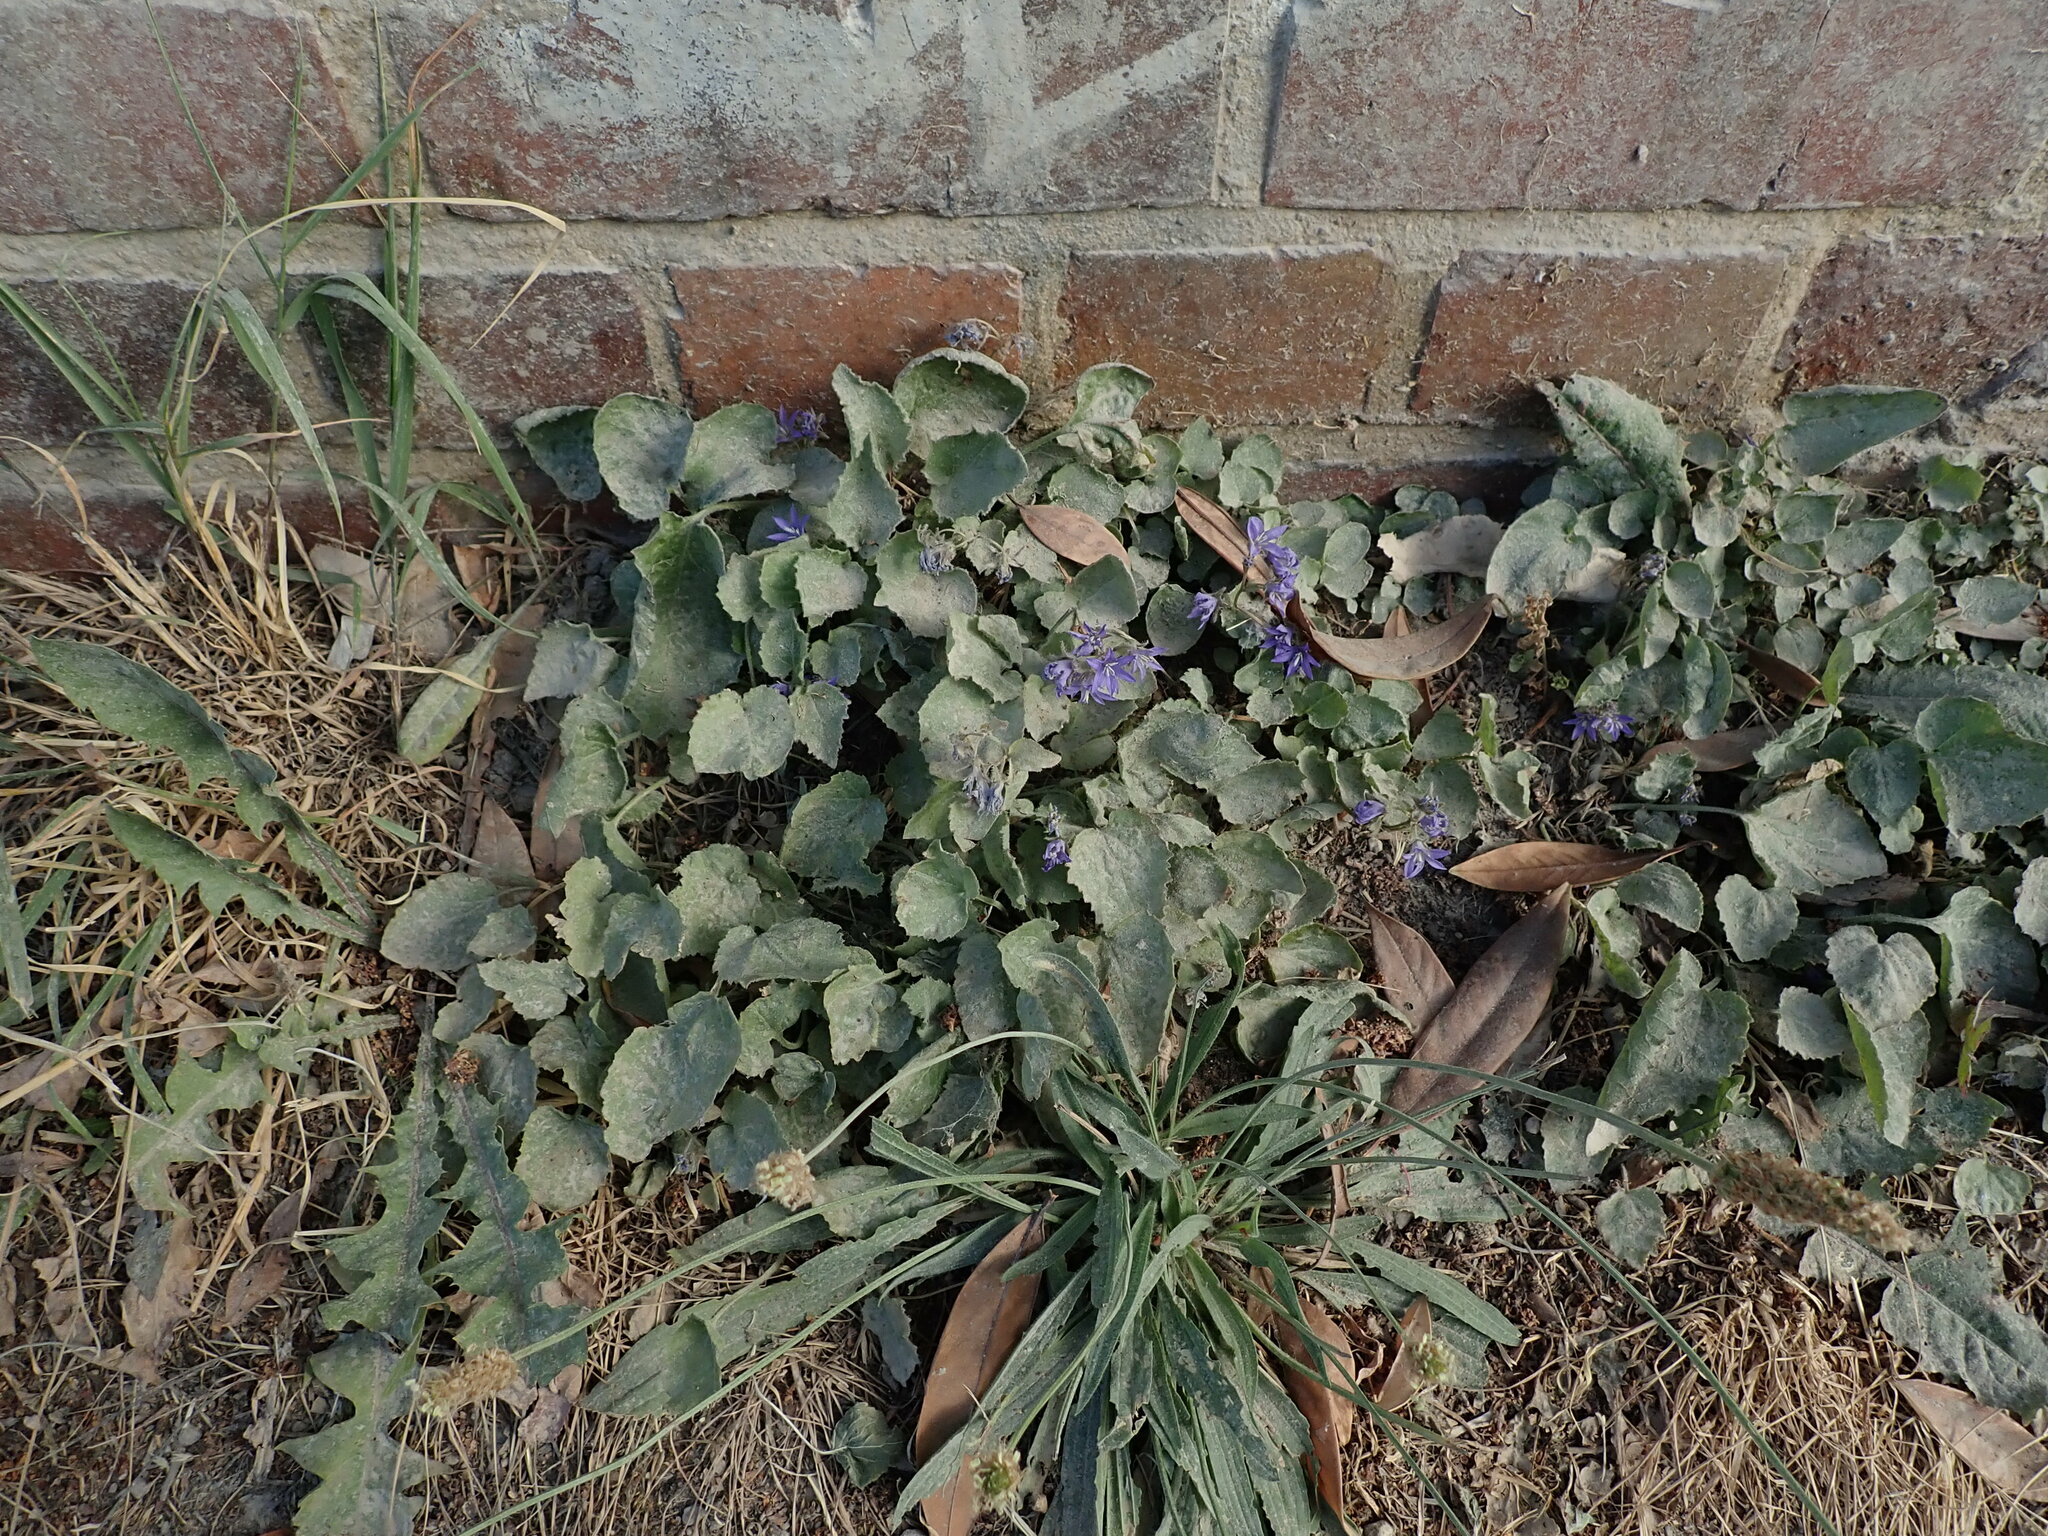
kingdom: Plantae
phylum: Tracheophyta
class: Magnoliopsida
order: Asterales
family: Campanulaceae
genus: Campanula
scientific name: Campanula poscharskyana
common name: Trailing bellflower
